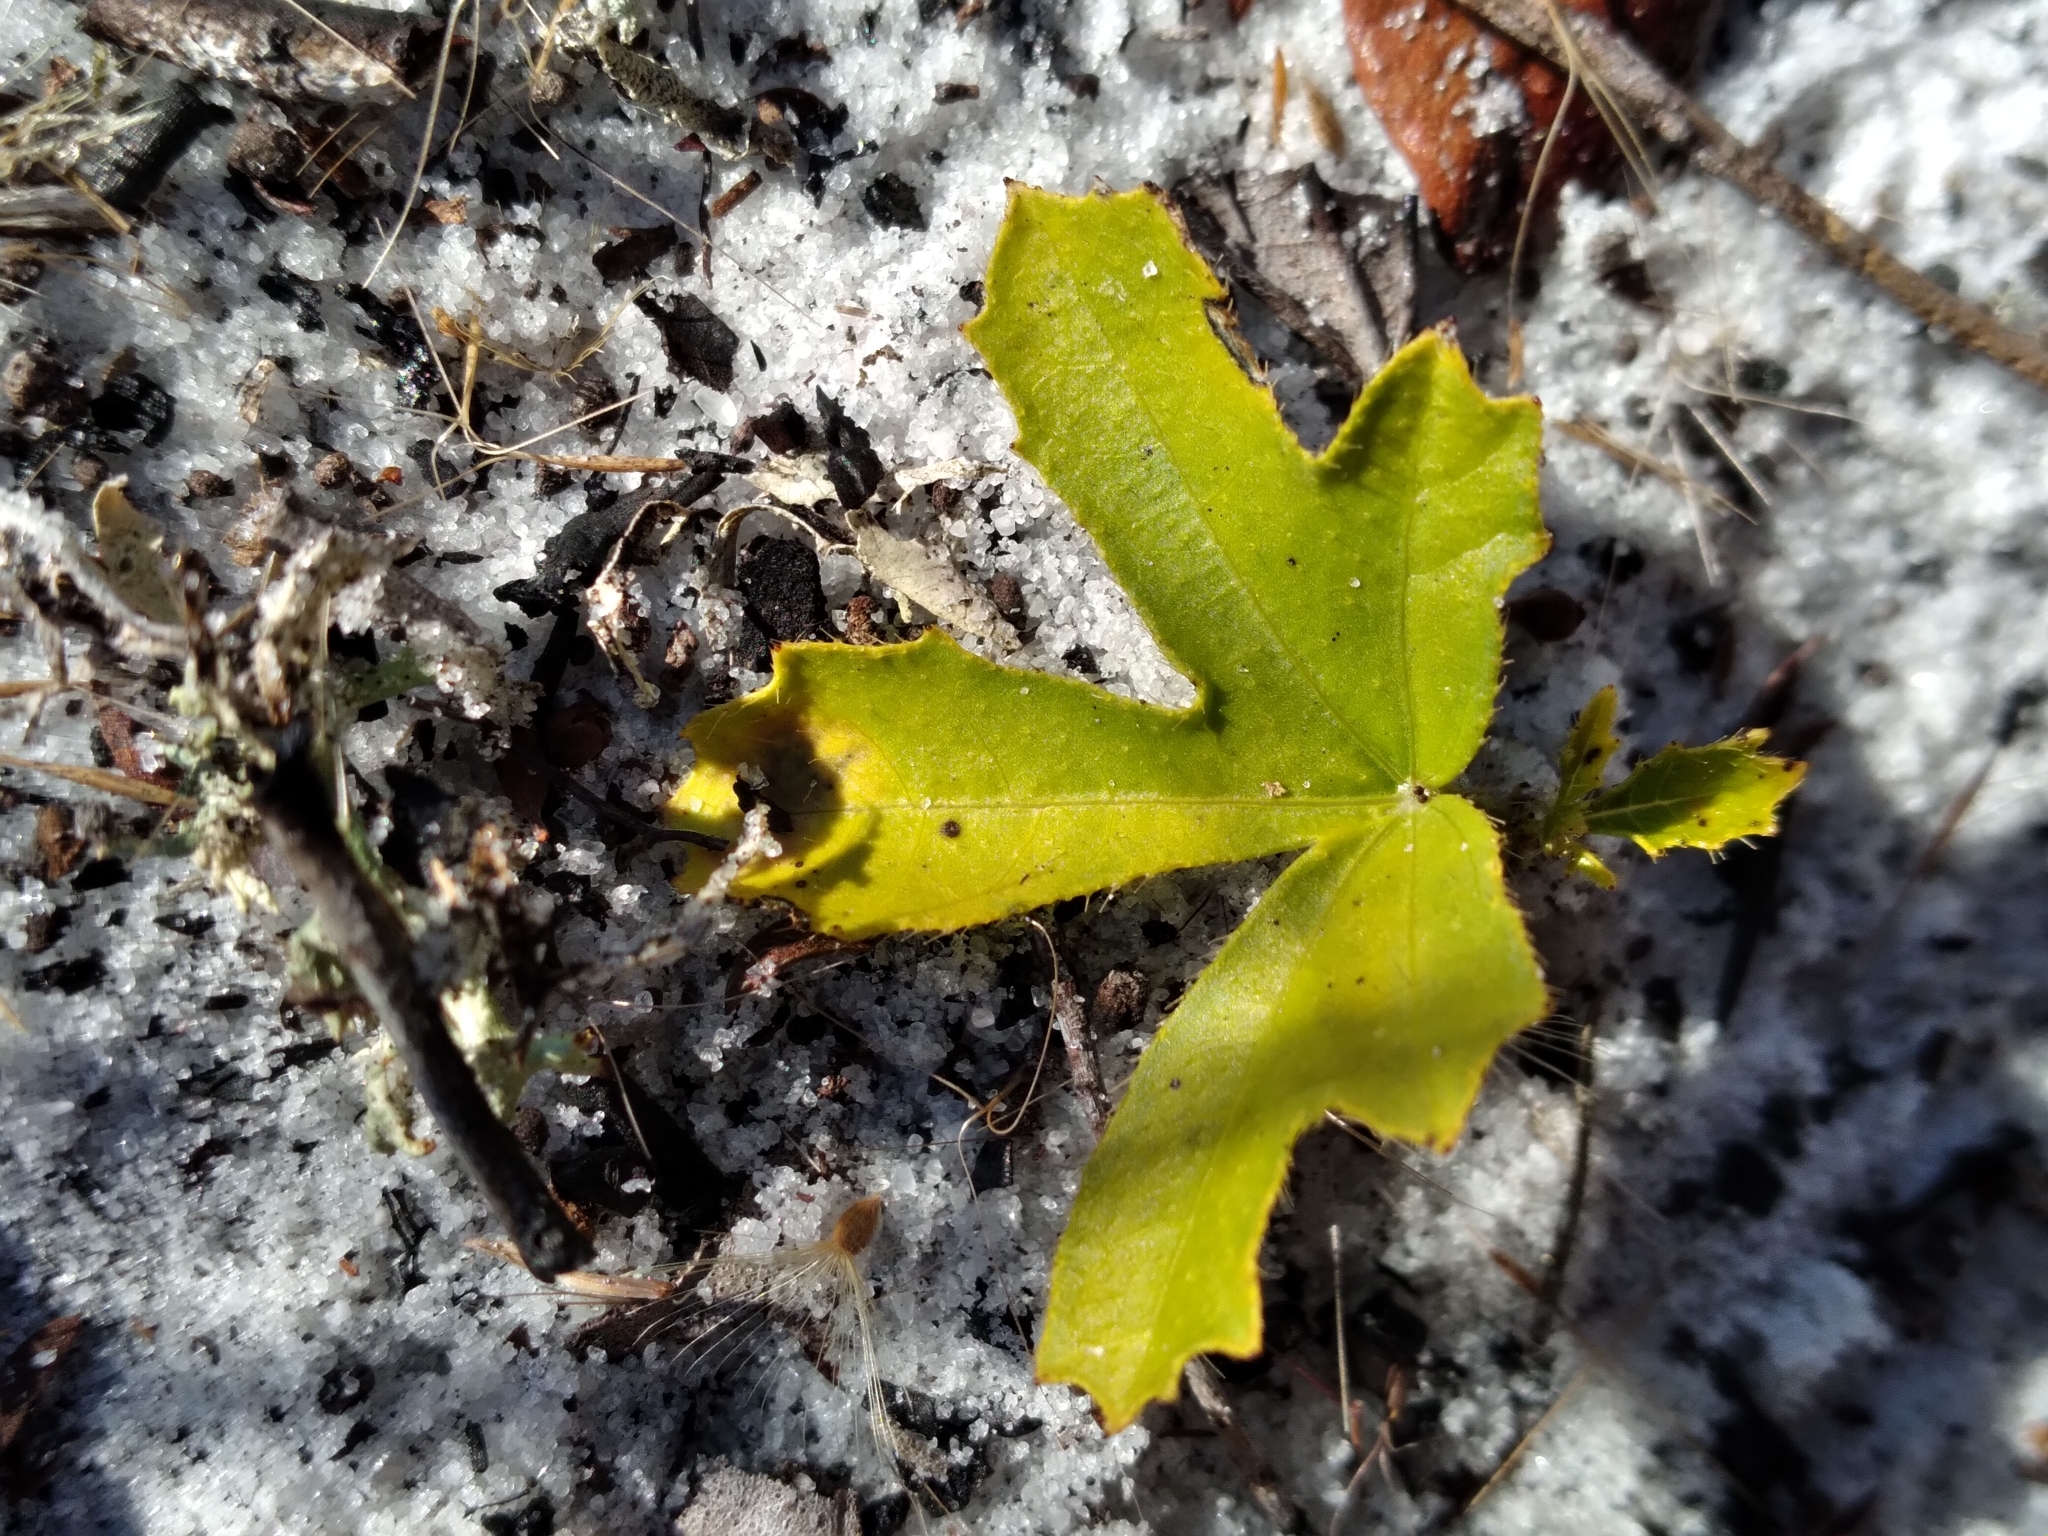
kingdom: Plantae
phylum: Tracheophyta
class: Magnoliopsida
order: Malpighiales
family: Euphorbiaceae
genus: Cnidoscolus
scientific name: Cnidoscolus stimulosus
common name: Bull-nettle
